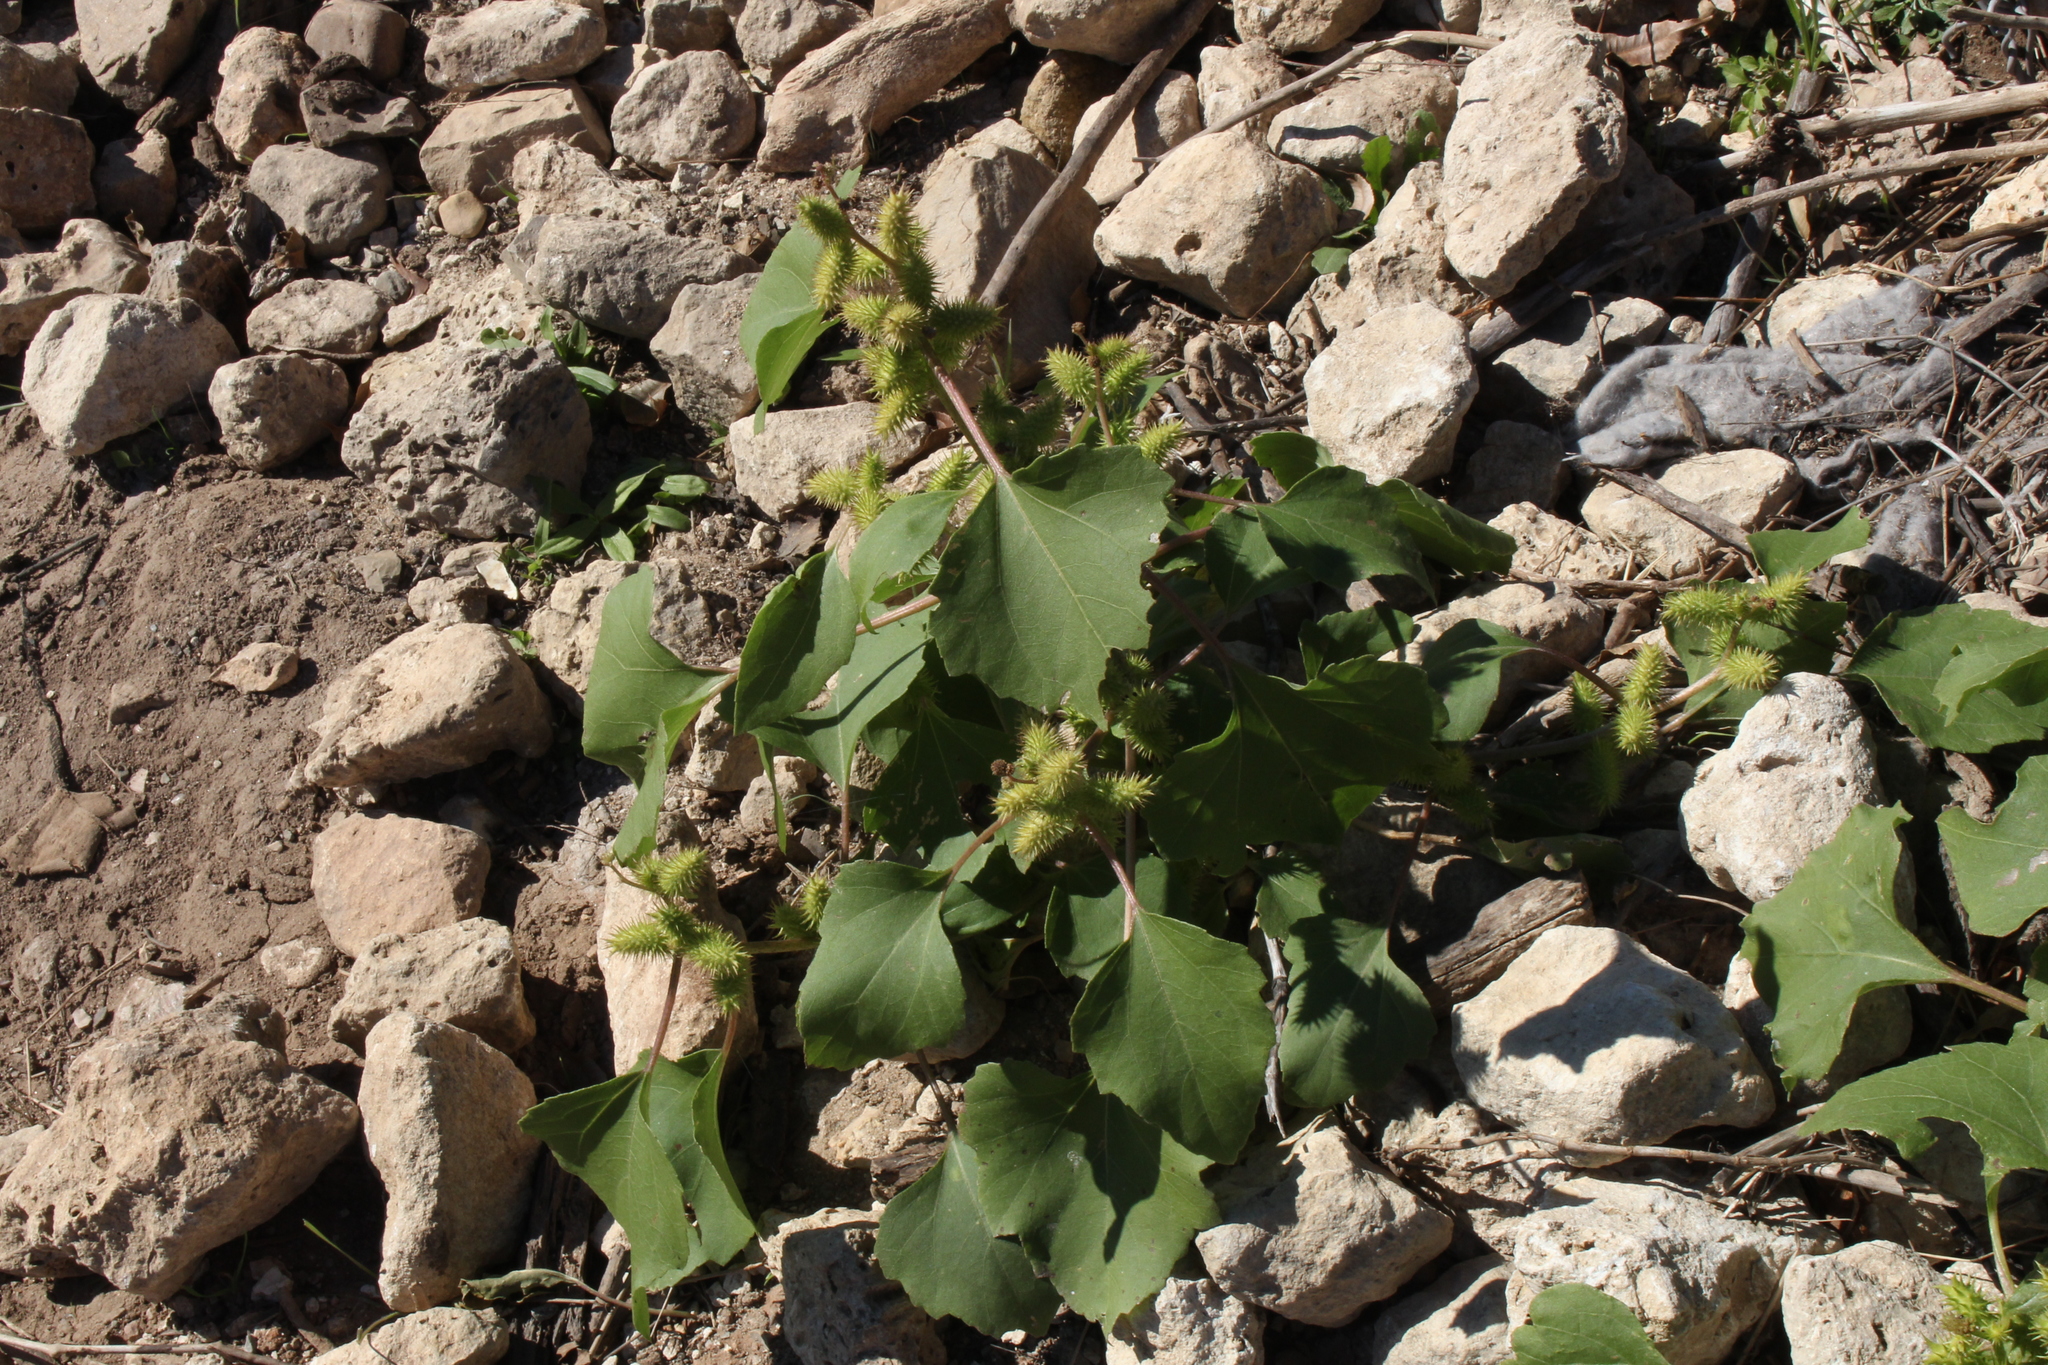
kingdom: Plantae
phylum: Tracheophyta
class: Magnoliopsida
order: Asterales
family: Asteraceae
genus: Xanthium
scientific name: Xanthium strumarium
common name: Rough cocklebur
